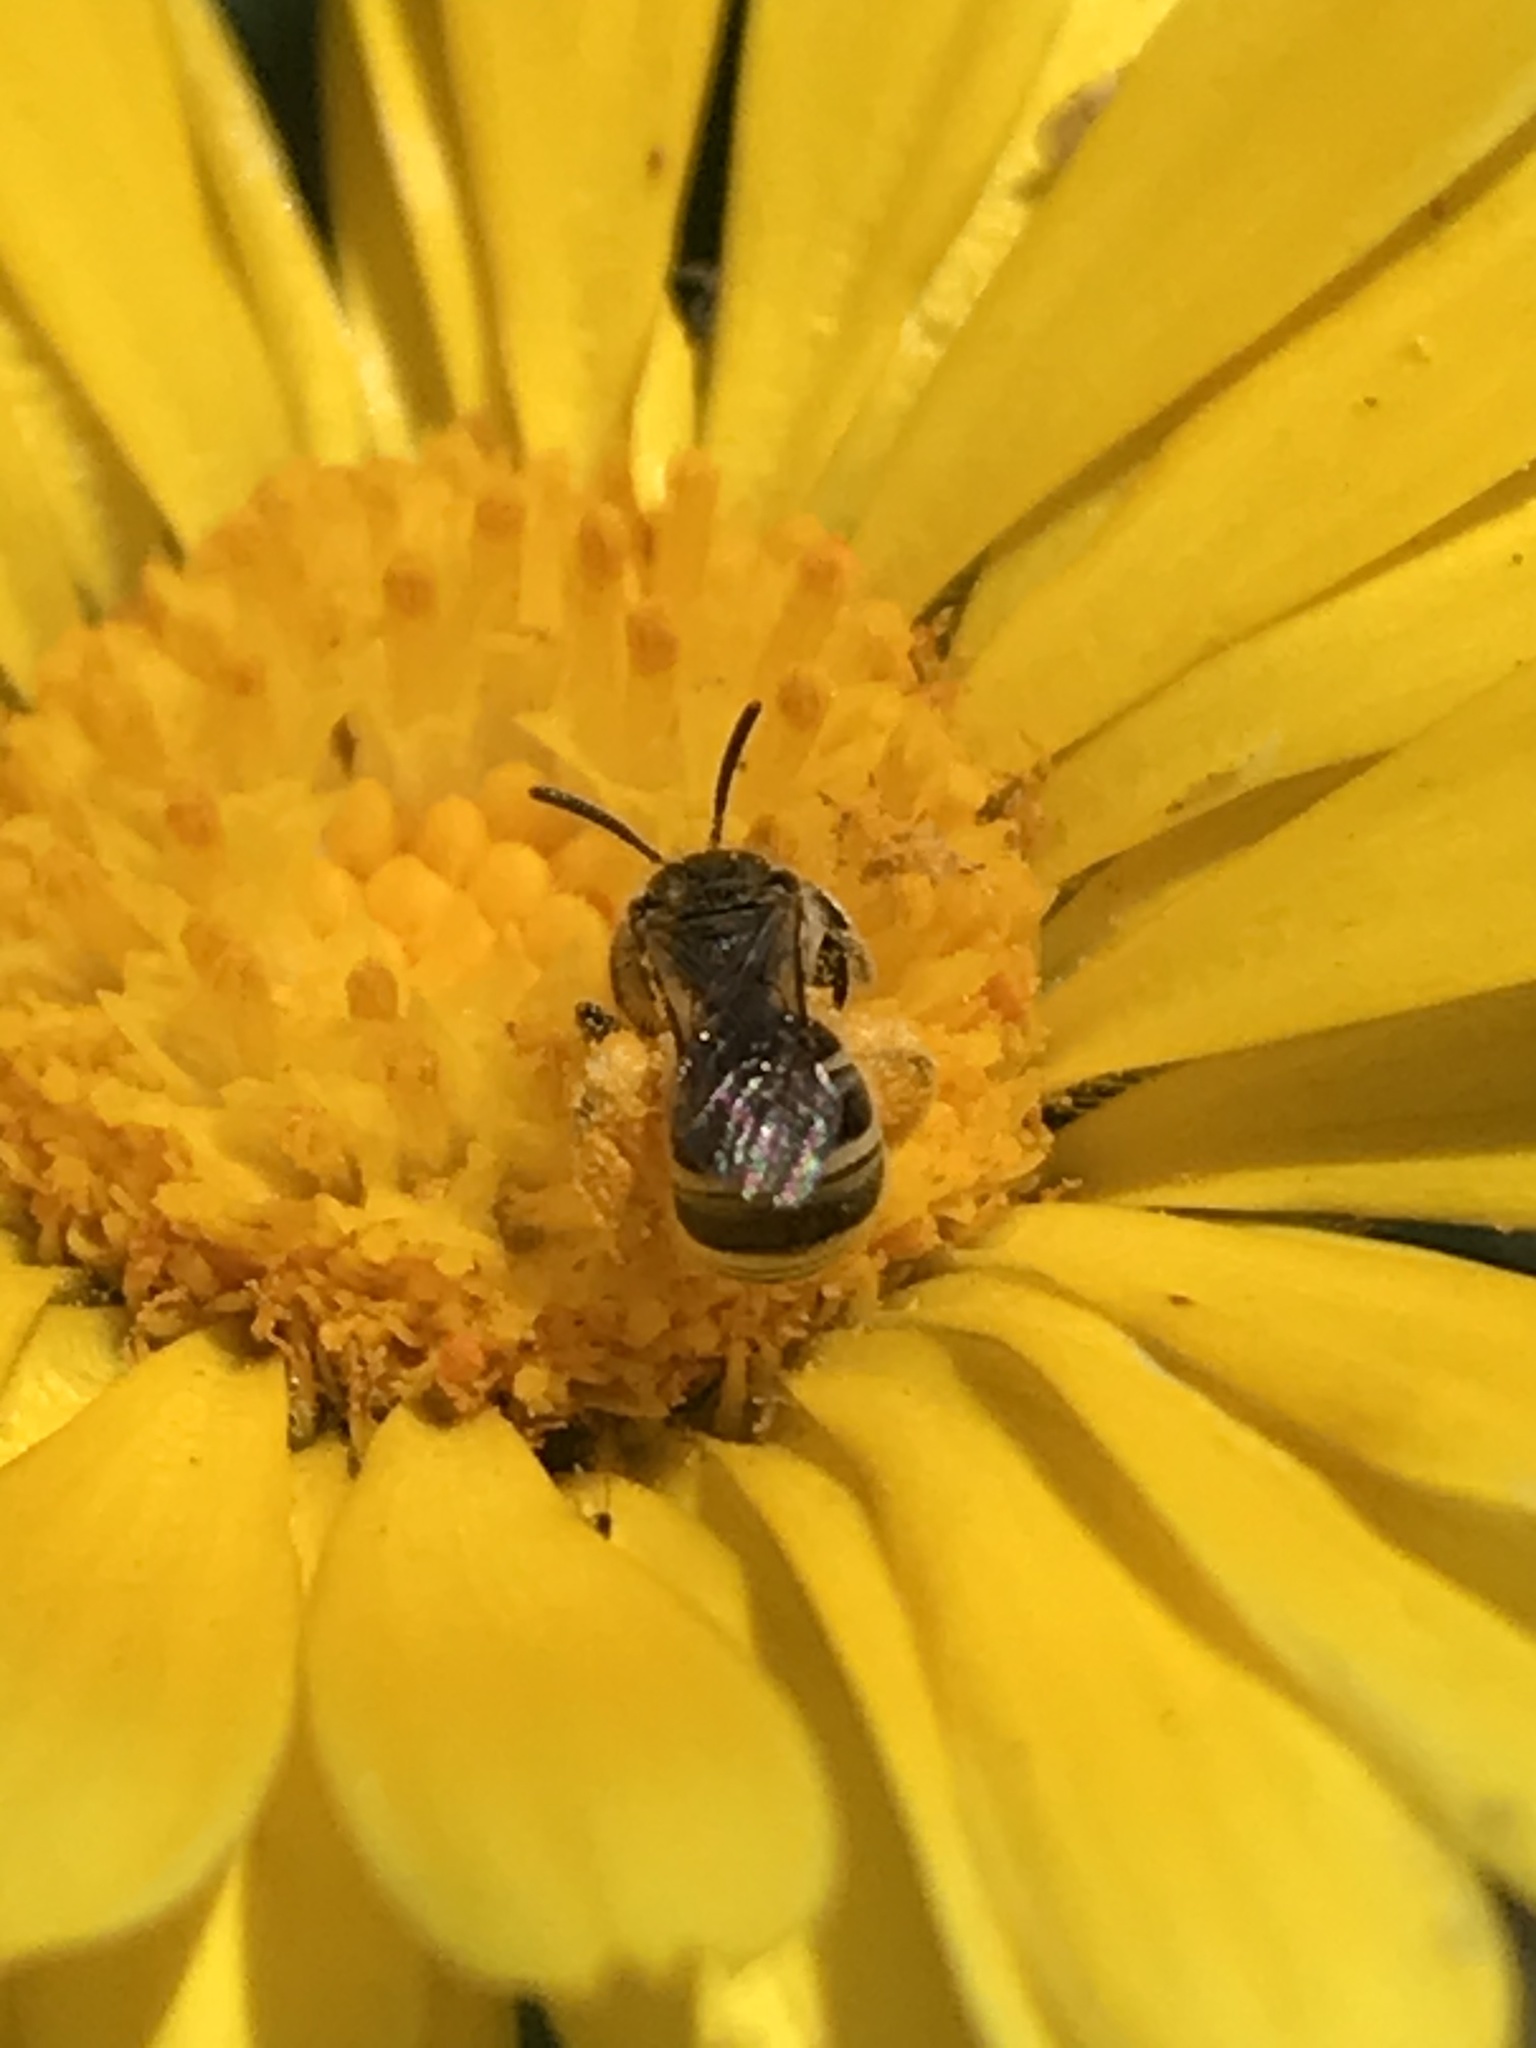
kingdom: Animalia
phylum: Arthropoda
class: Insecta
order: Hymenoptera
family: Halictidae
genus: Halictus
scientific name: Halictus tripartitus
